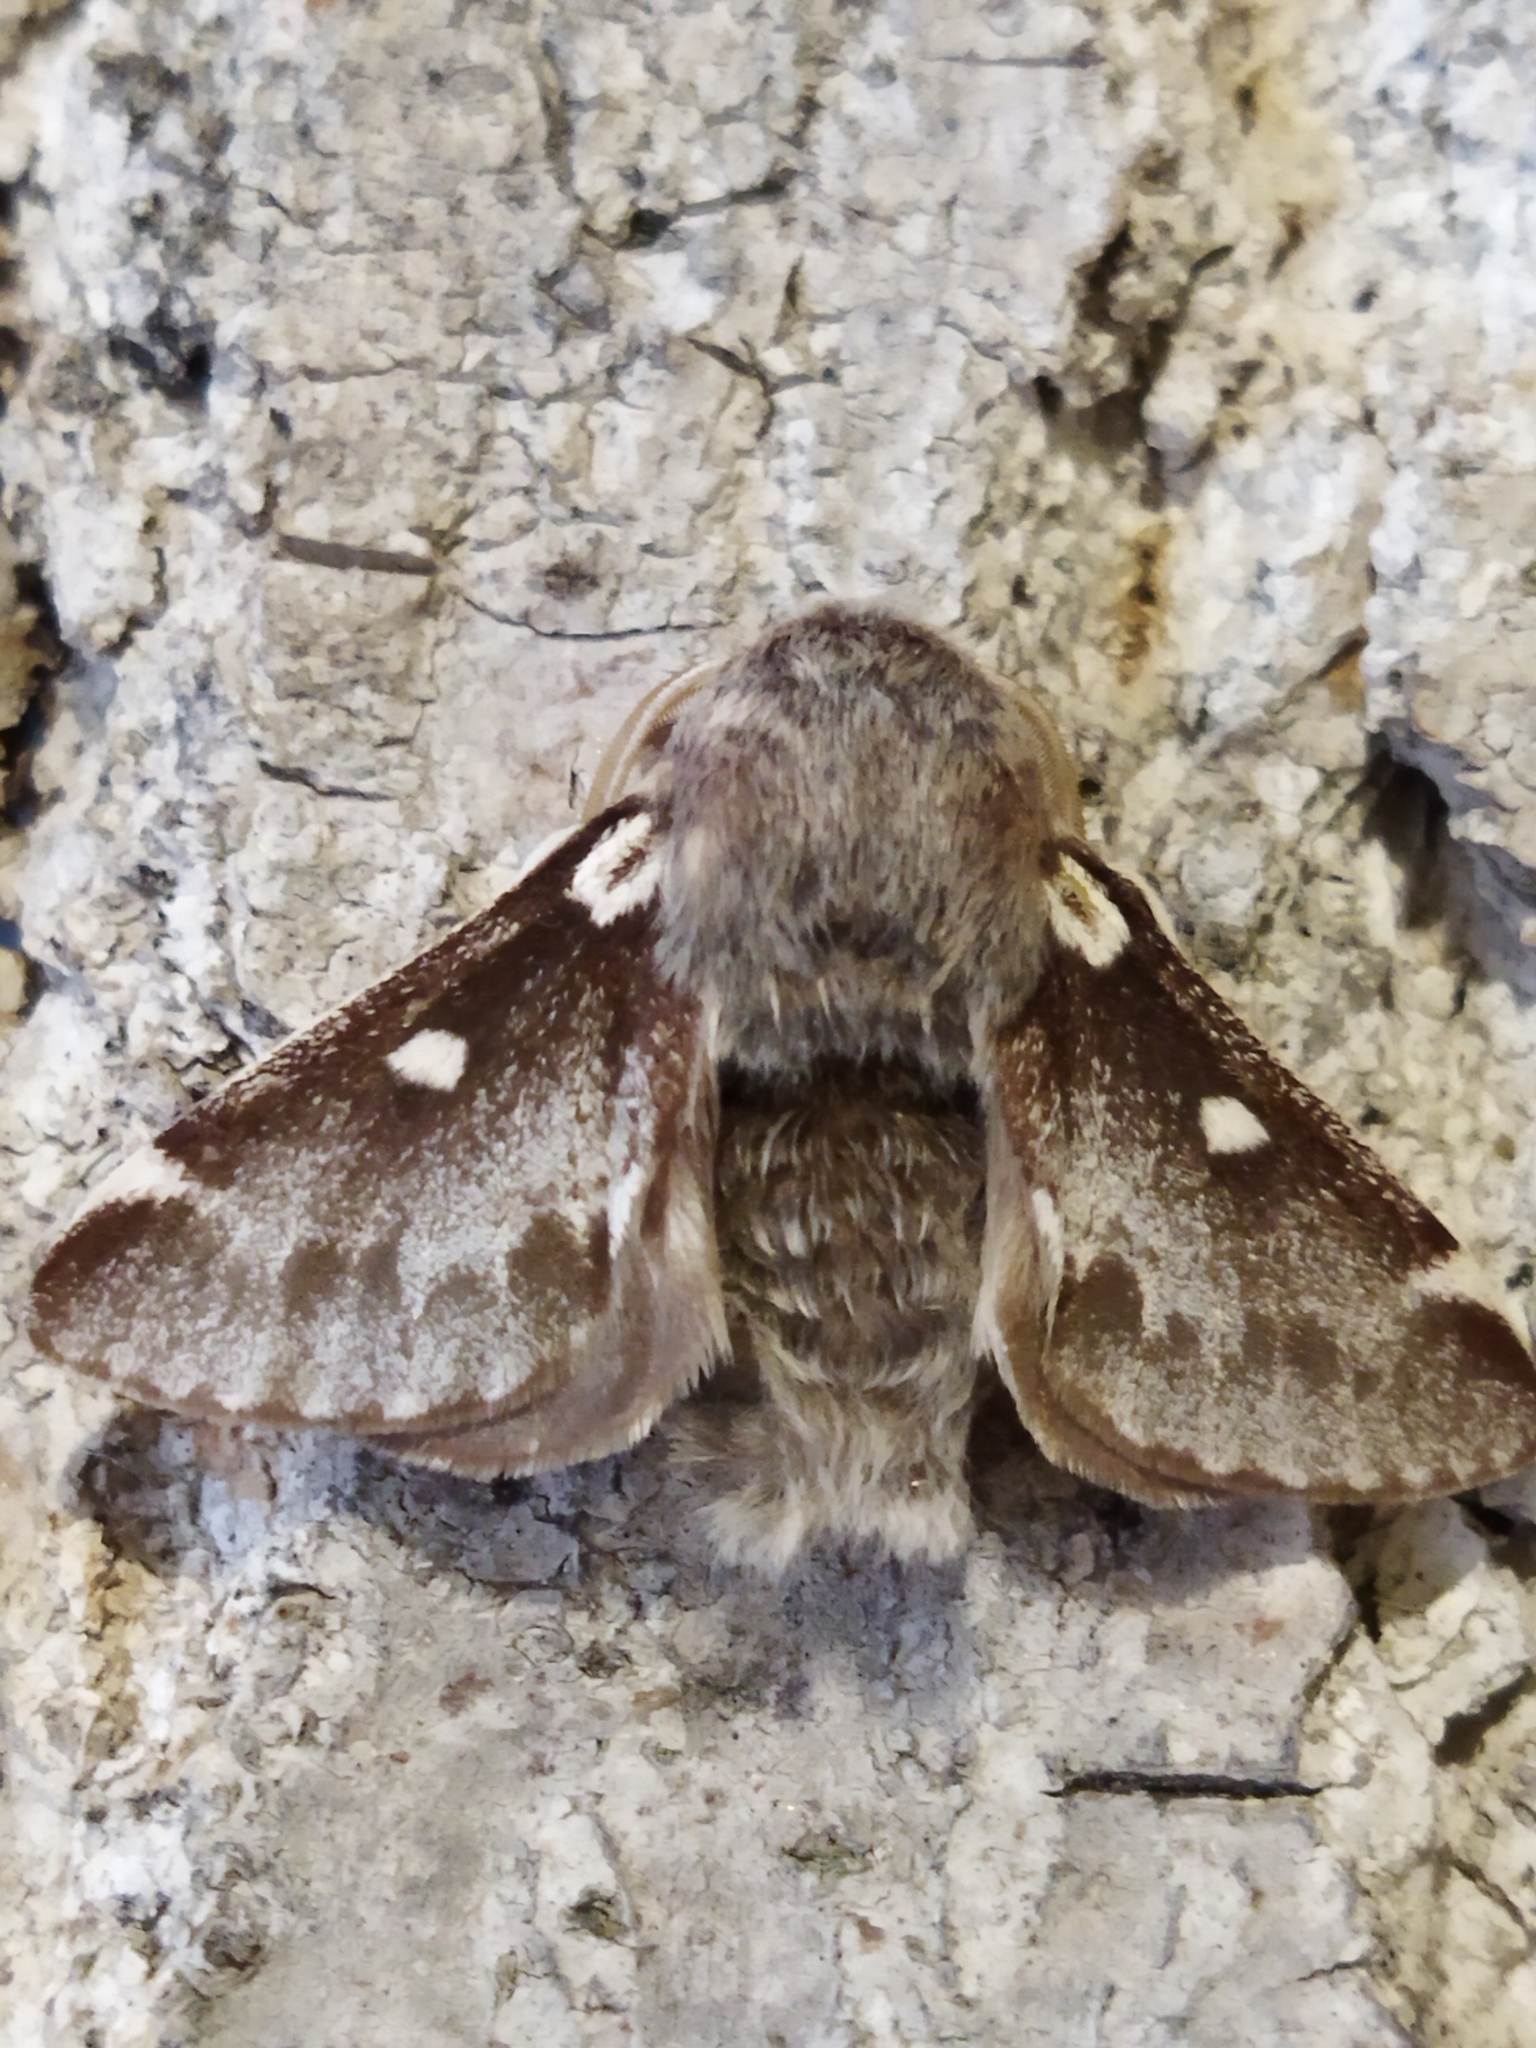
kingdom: Animalia
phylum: Arthropoda
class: Insecta
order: Lepidoptera
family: Lasiocampidae
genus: Eriogaster
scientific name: Eriogaster lanestris
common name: Small eggar
